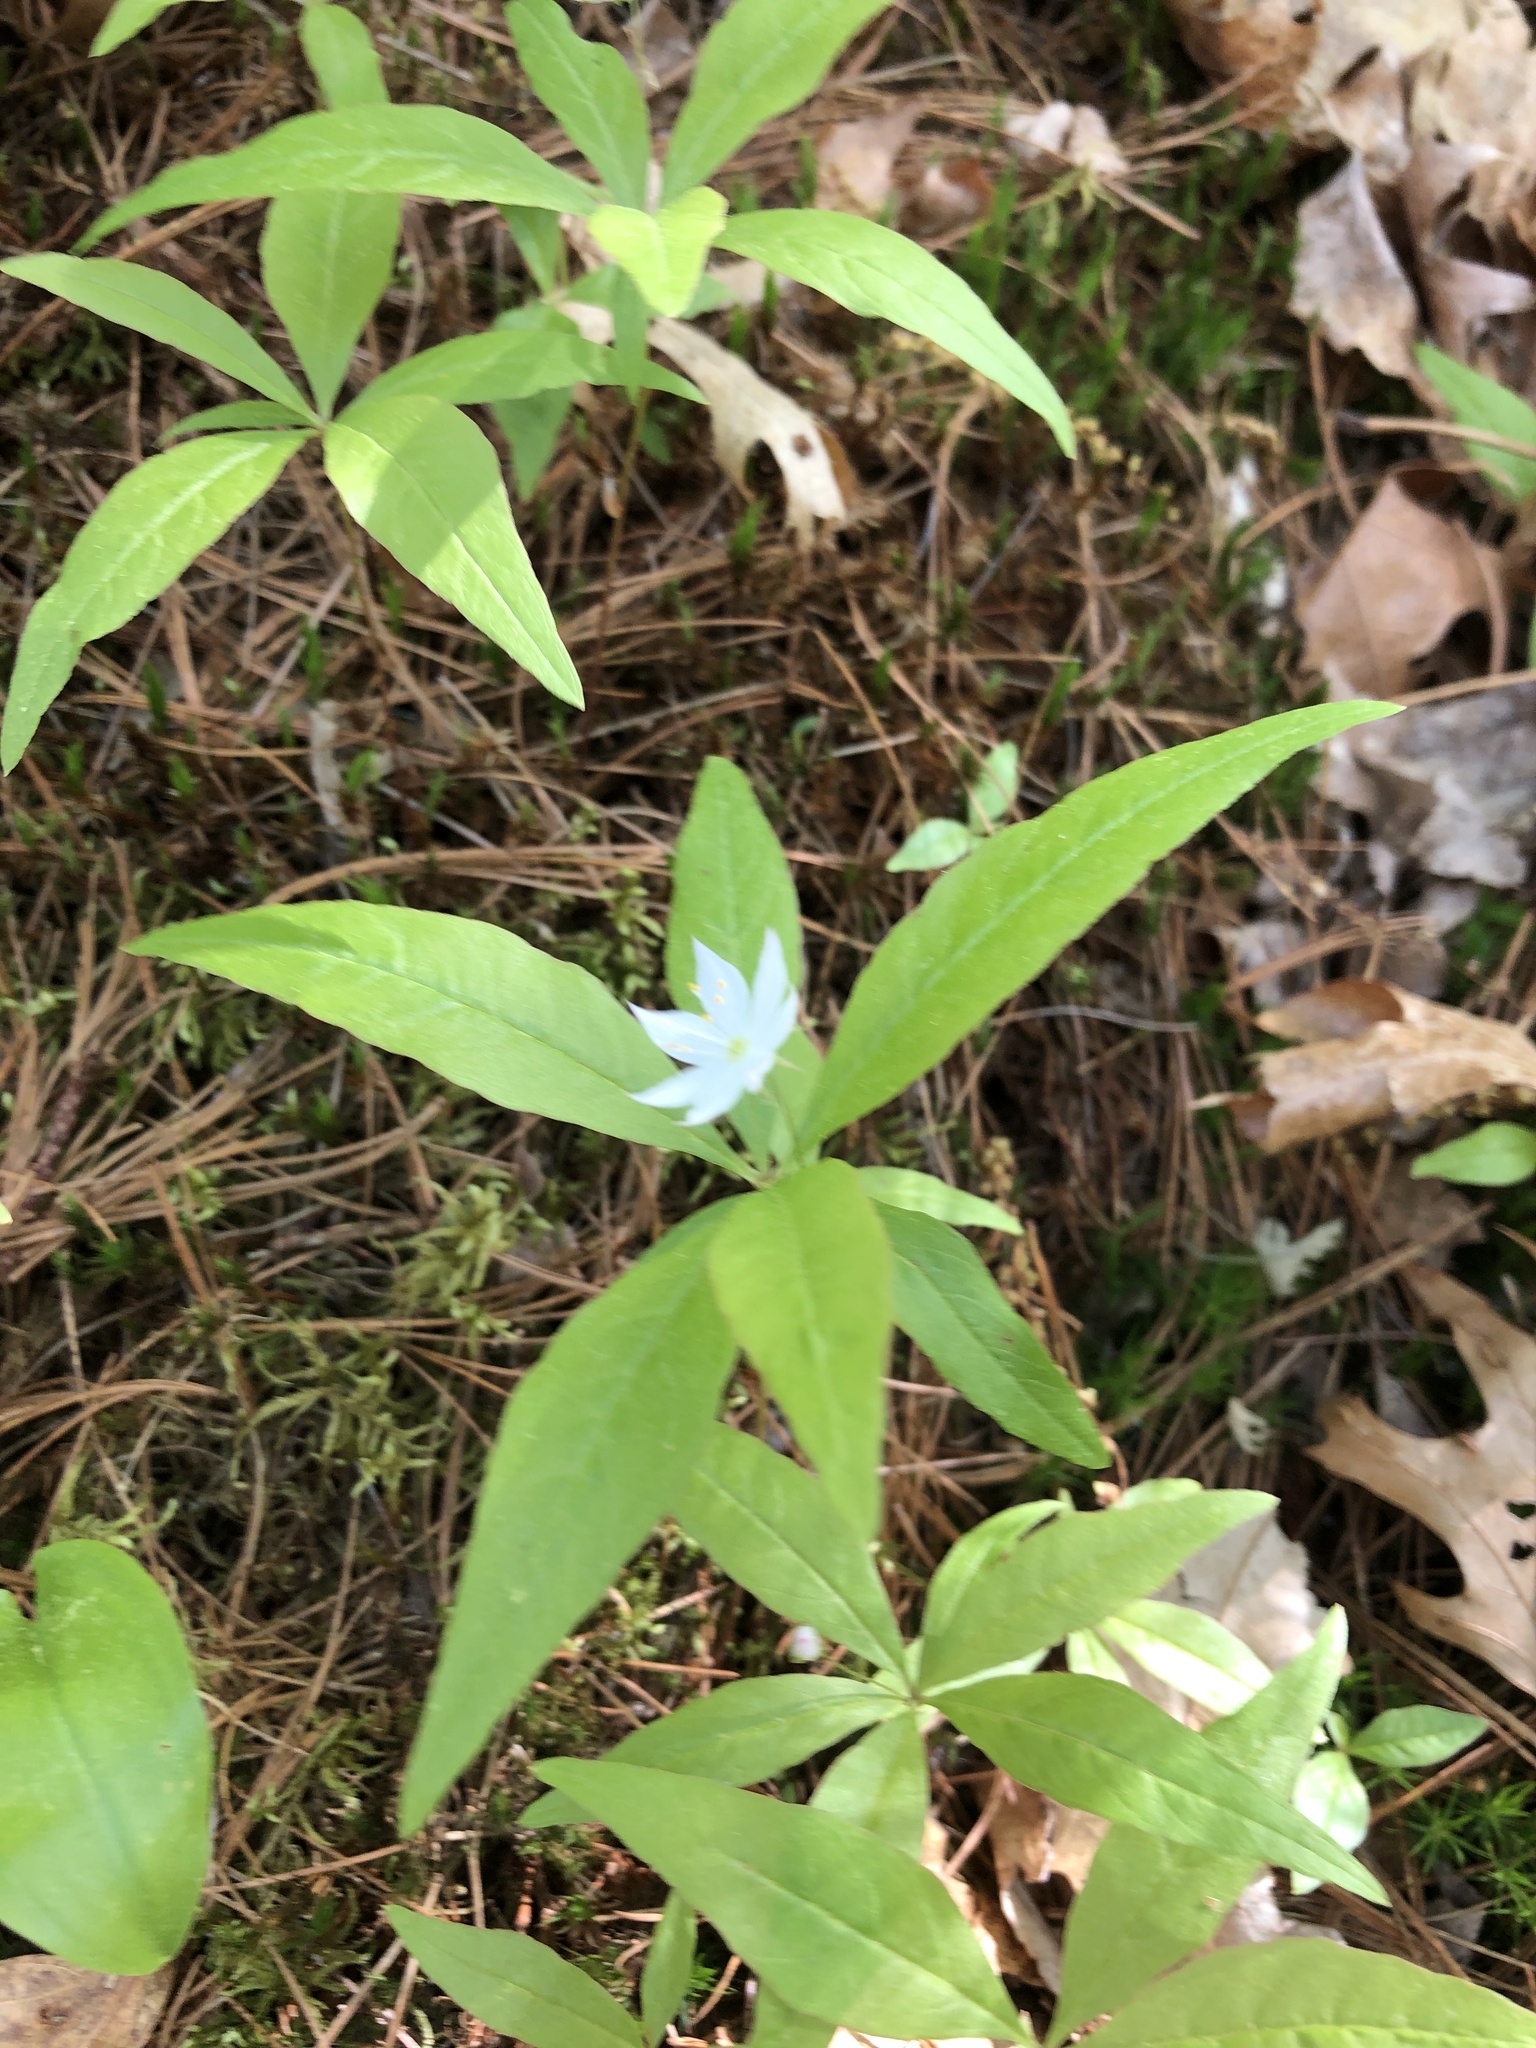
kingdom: Plantae
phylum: Tracheophyta
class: Magnoliopsida
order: Ericales
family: Primulaceae
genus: Lysimachia
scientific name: Lysimachia borealis
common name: American starflower
